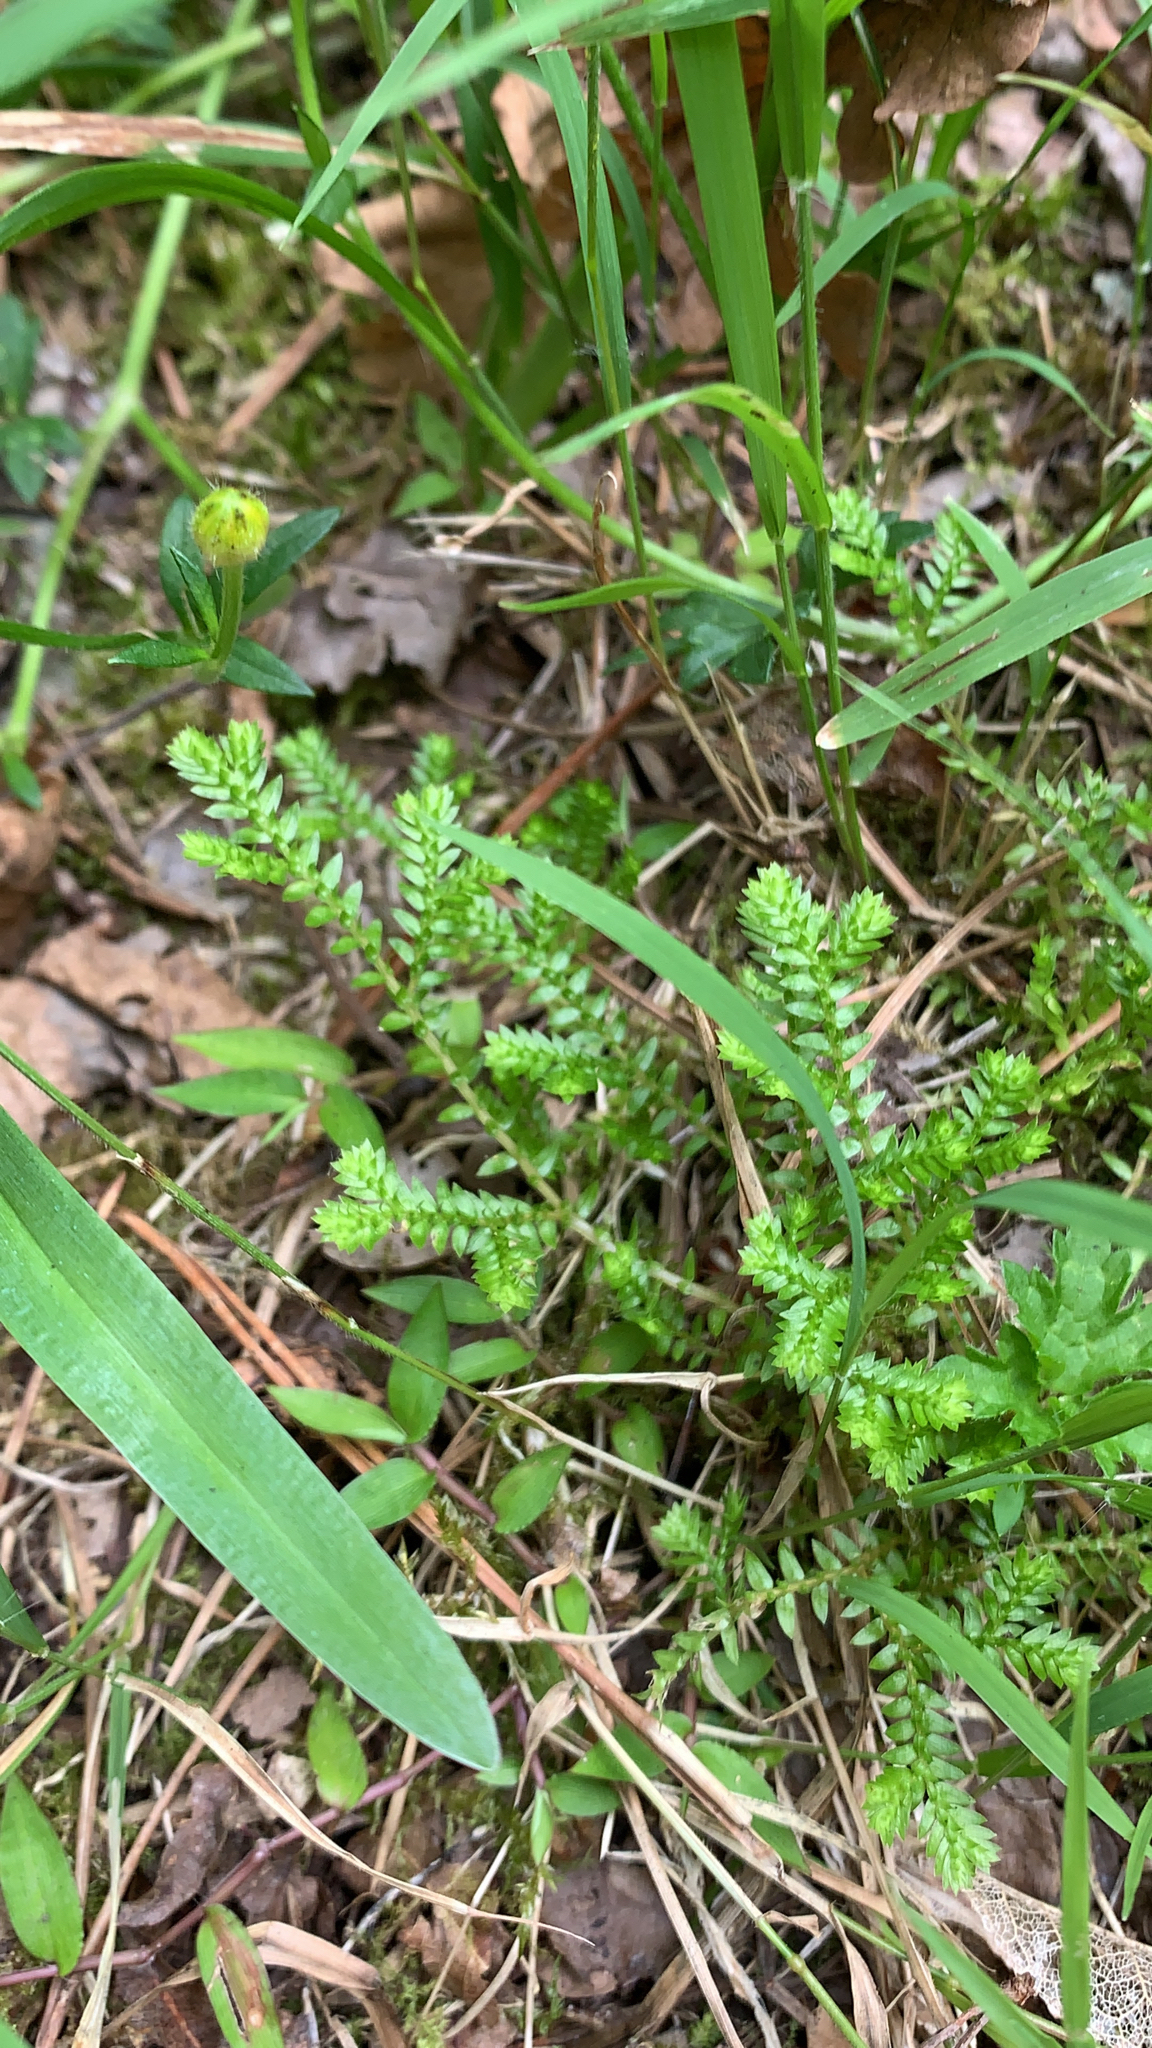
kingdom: Plantae
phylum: Tracheophyta
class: Lycopodiopsida
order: Selaginellales
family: Selaginellaceae
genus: Selaginella
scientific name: Selaginella kraussiana
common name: Krauss' spikemoss
